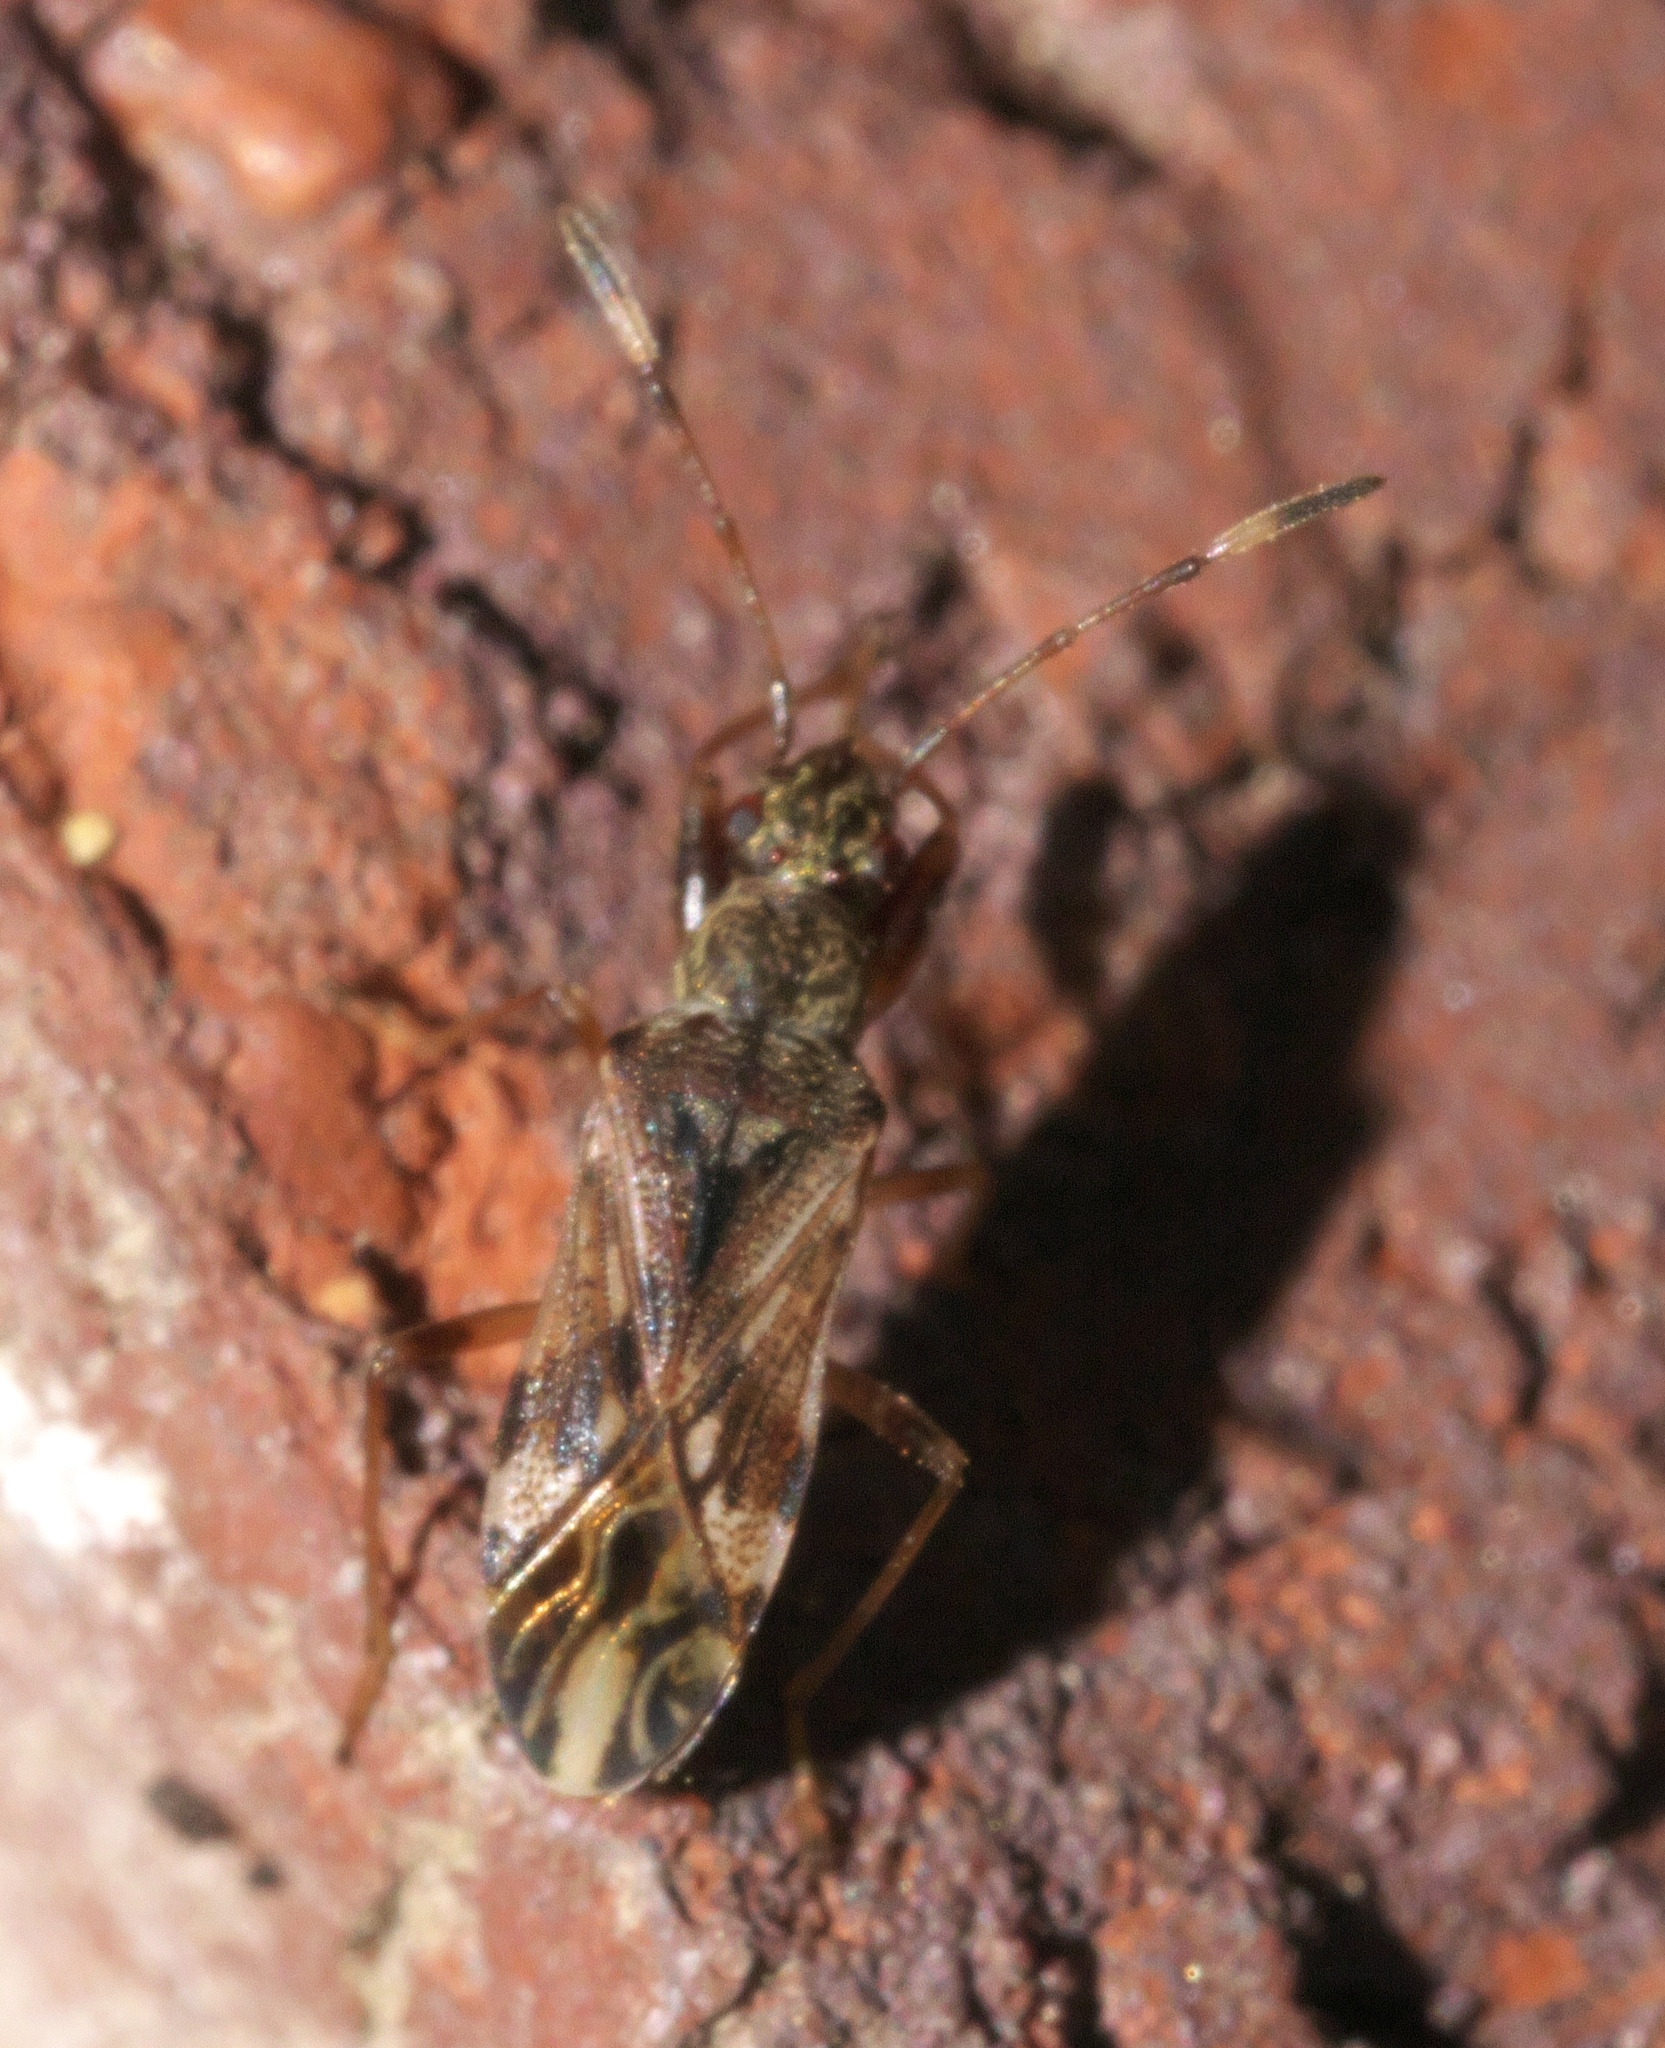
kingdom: Animalia
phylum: Arthropoda
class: Insecta
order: Hemiptera
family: Rhyparochromidae
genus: Neopamera
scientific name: Neopamera albocincta
